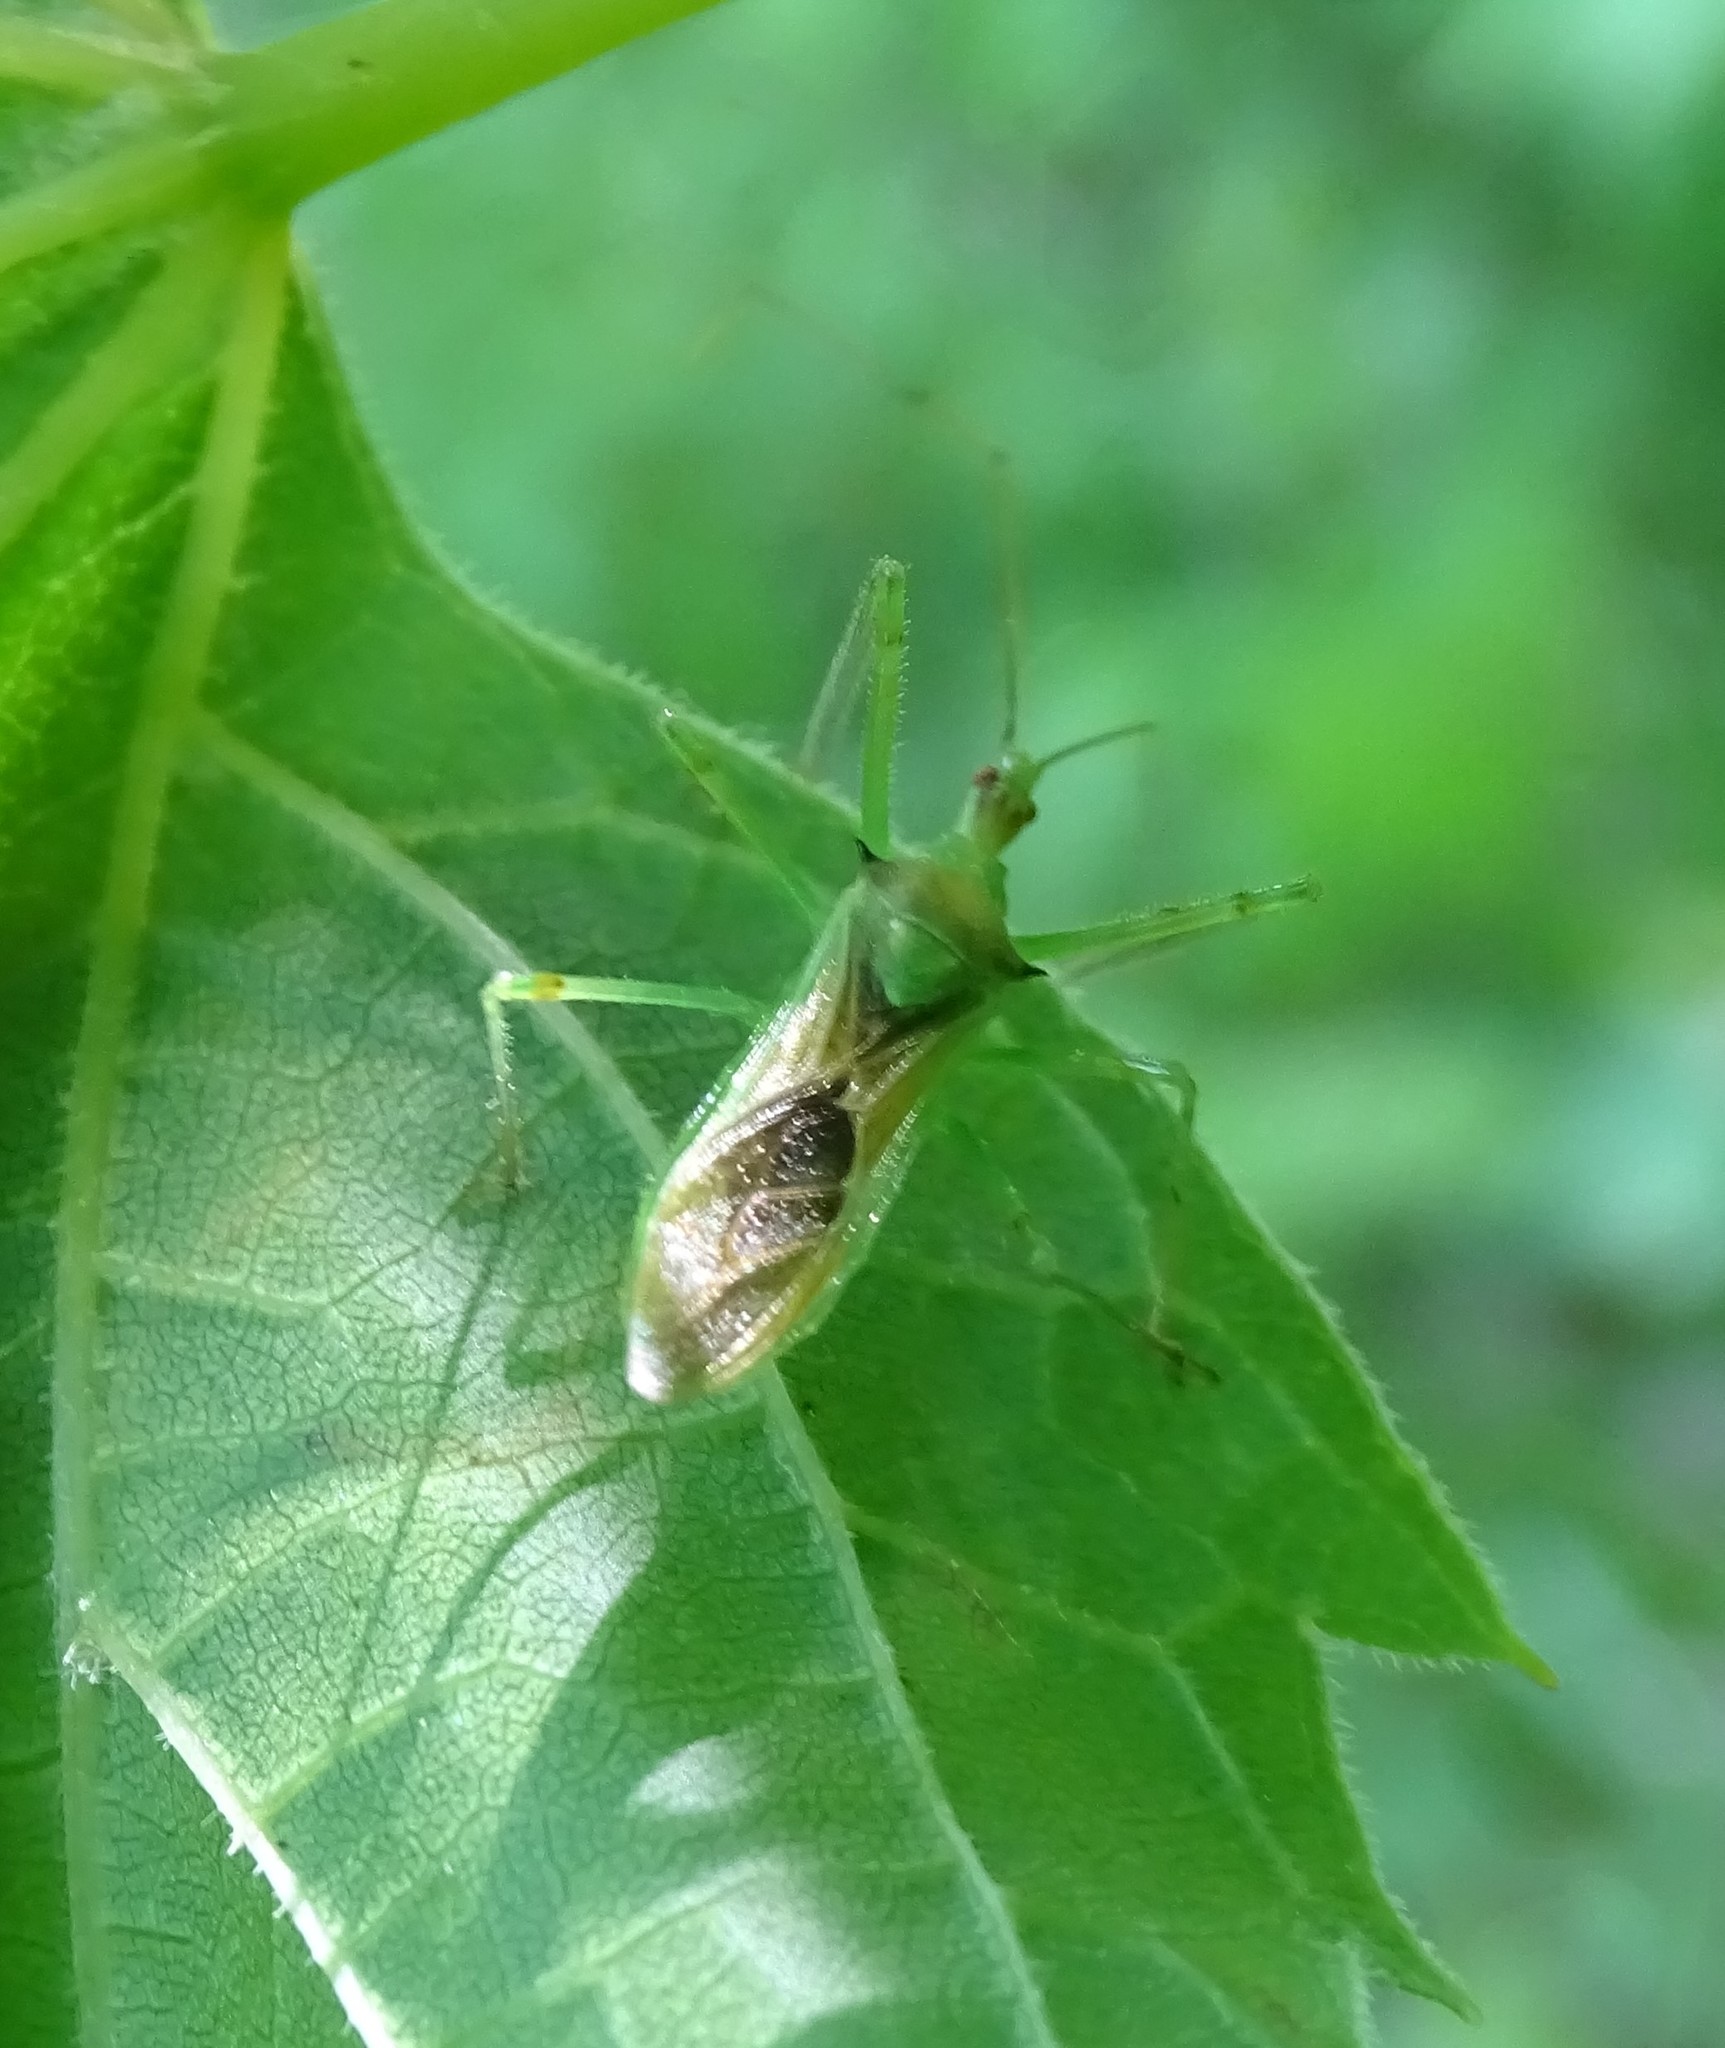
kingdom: Animalia
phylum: Arthropoda
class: Insecta
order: Hemiptera
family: Reduviidae
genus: Zelus
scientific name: Zelus luridus
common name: Pale green assassin bug
